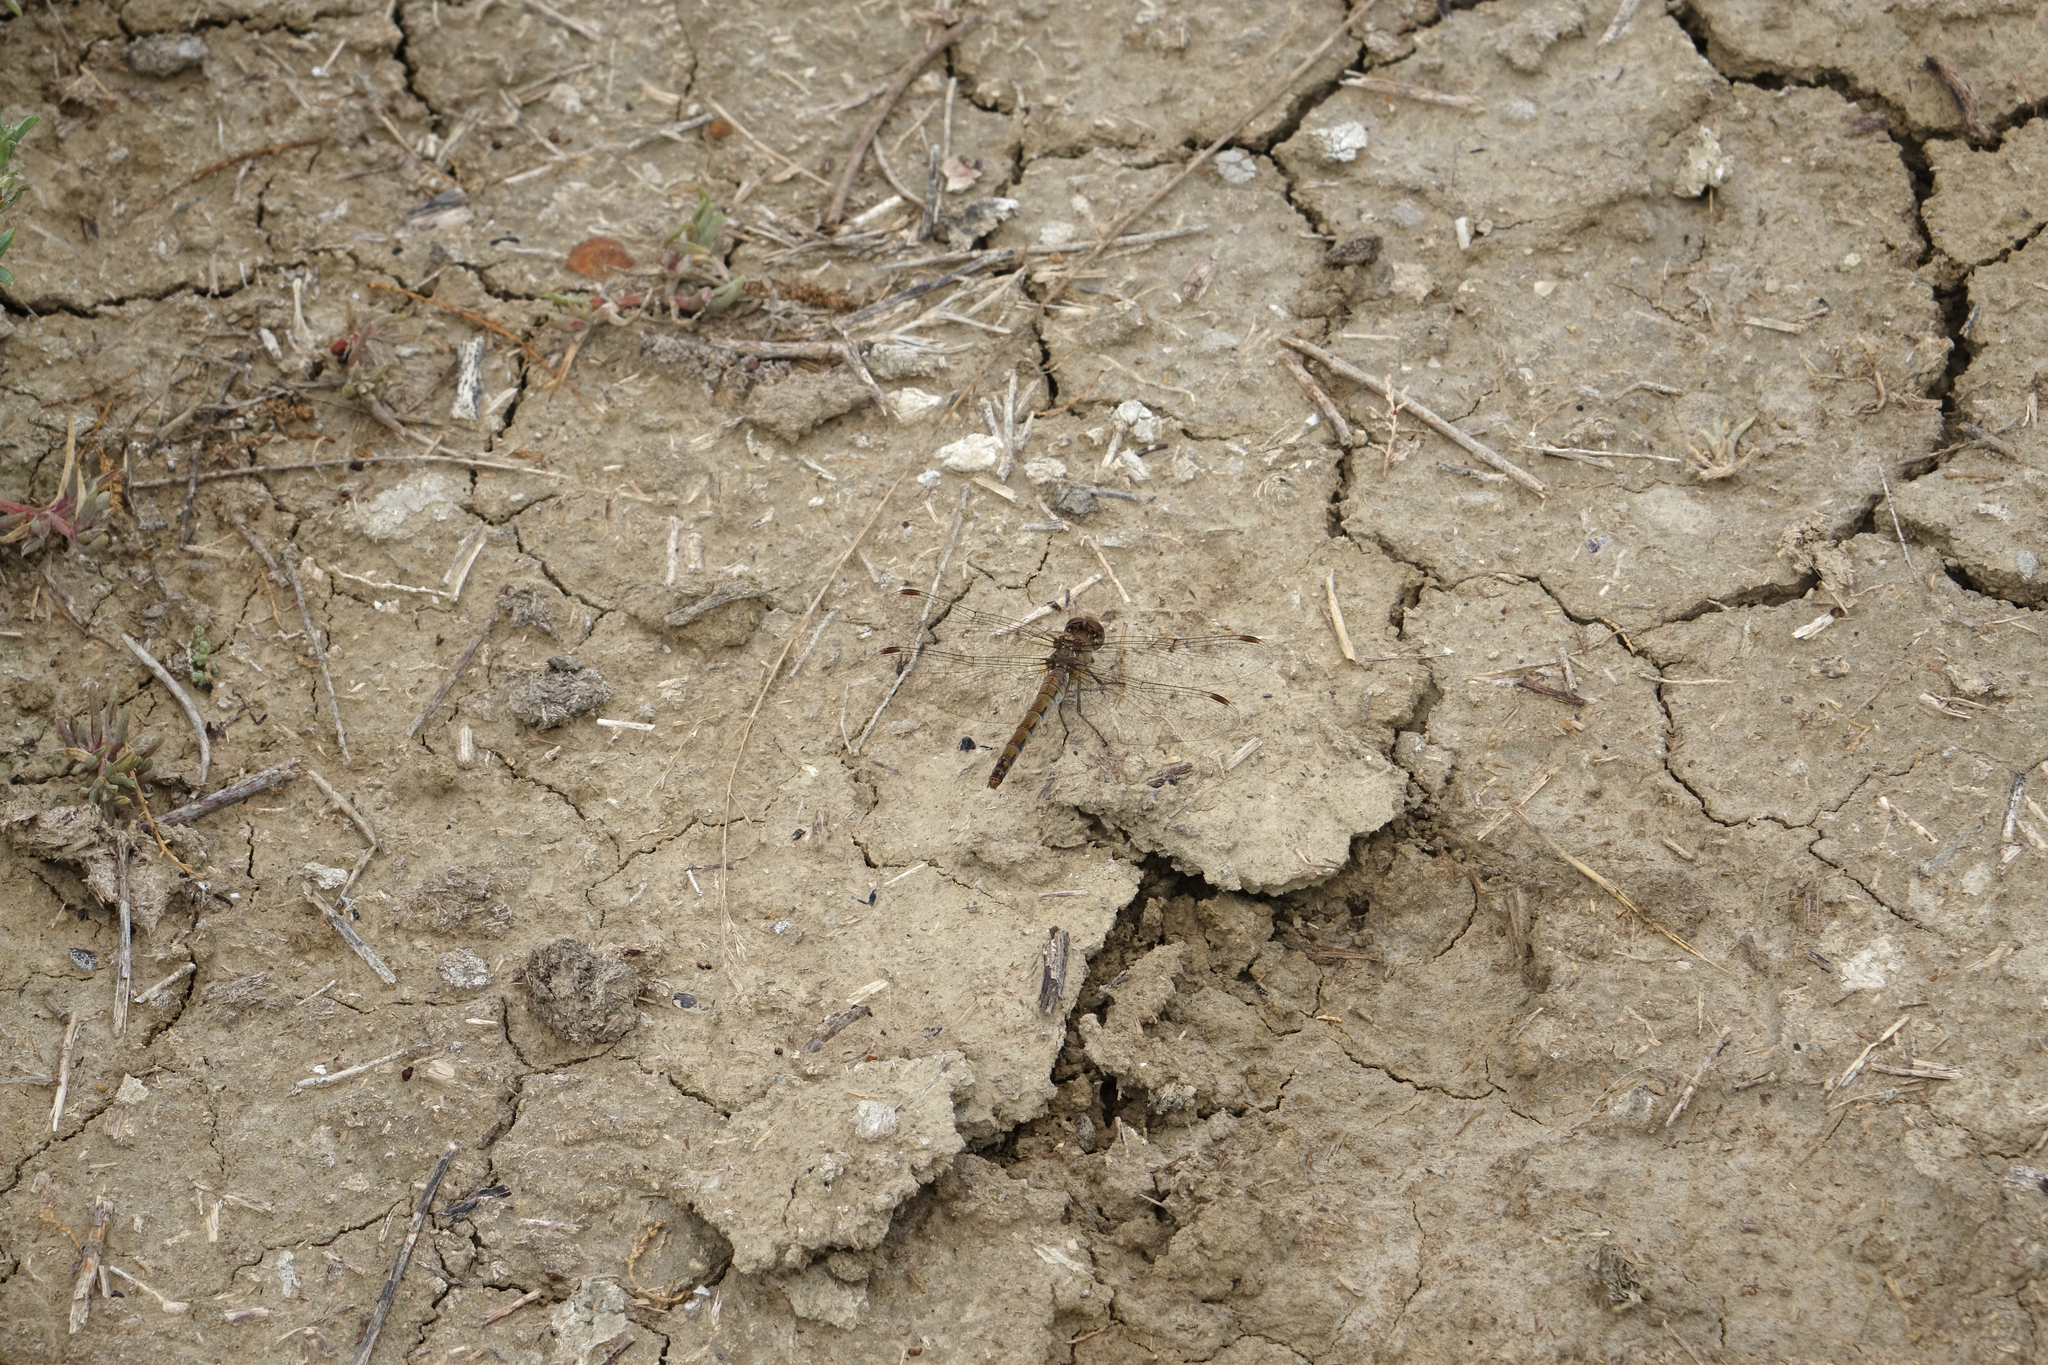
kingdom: Animalia
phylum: Arthropoda
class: Insecta
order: Odonata
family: Libellulidae
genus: Sympetrum
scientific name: Sympetrum striolatum
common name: Common darter
